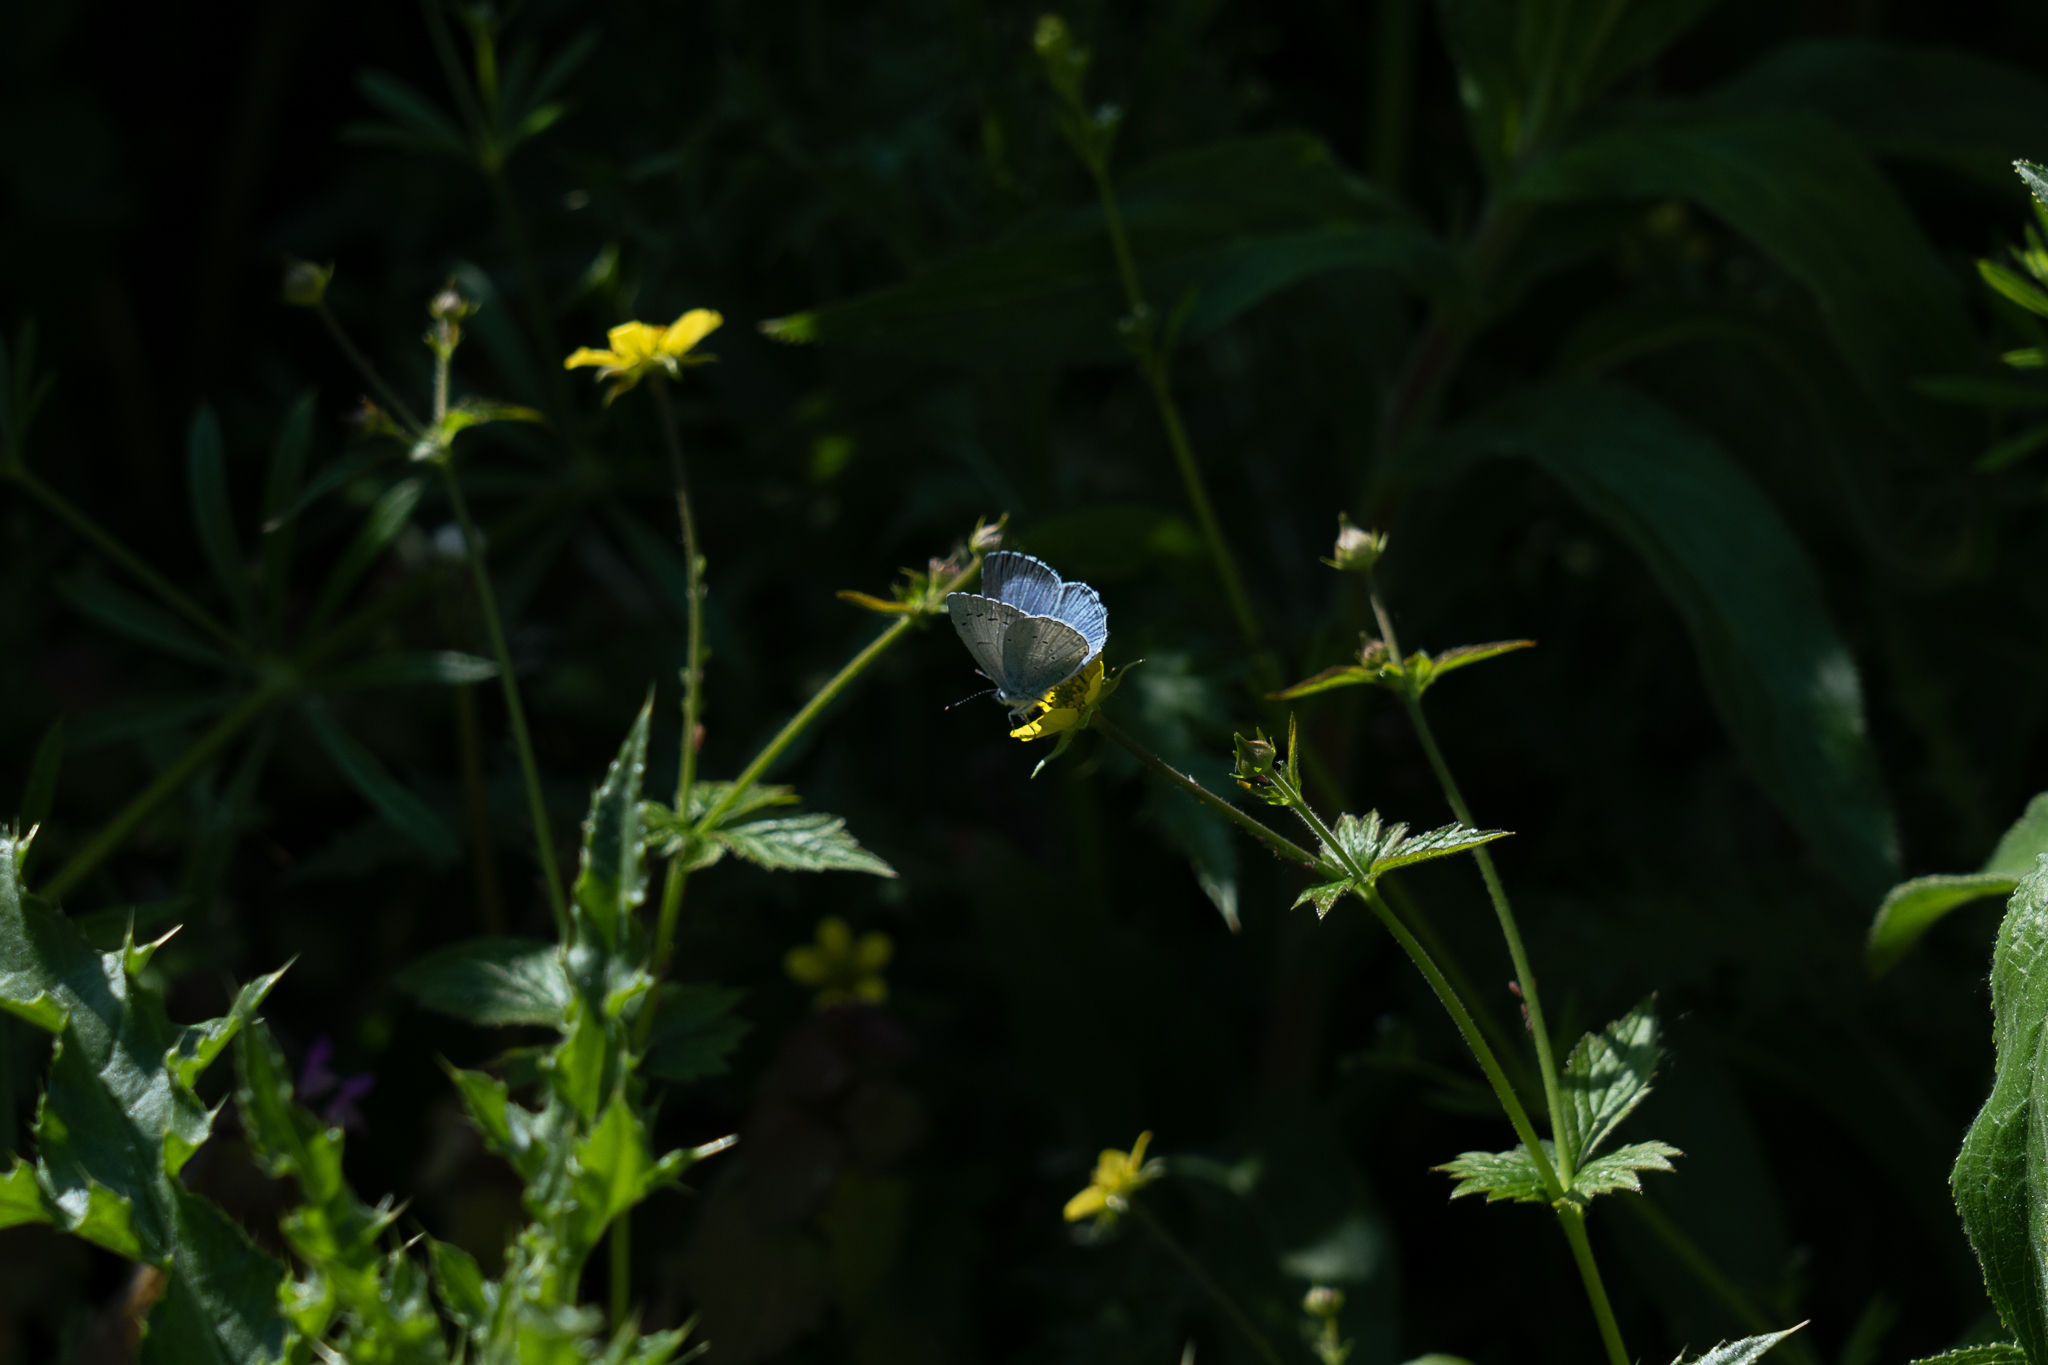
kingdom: Animalia
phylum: Arthropoda
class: Insecta
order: Lepidoptera
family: Lycaenidae
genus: Celastrina
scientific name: Celastrina argiolus
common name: Holly blue
